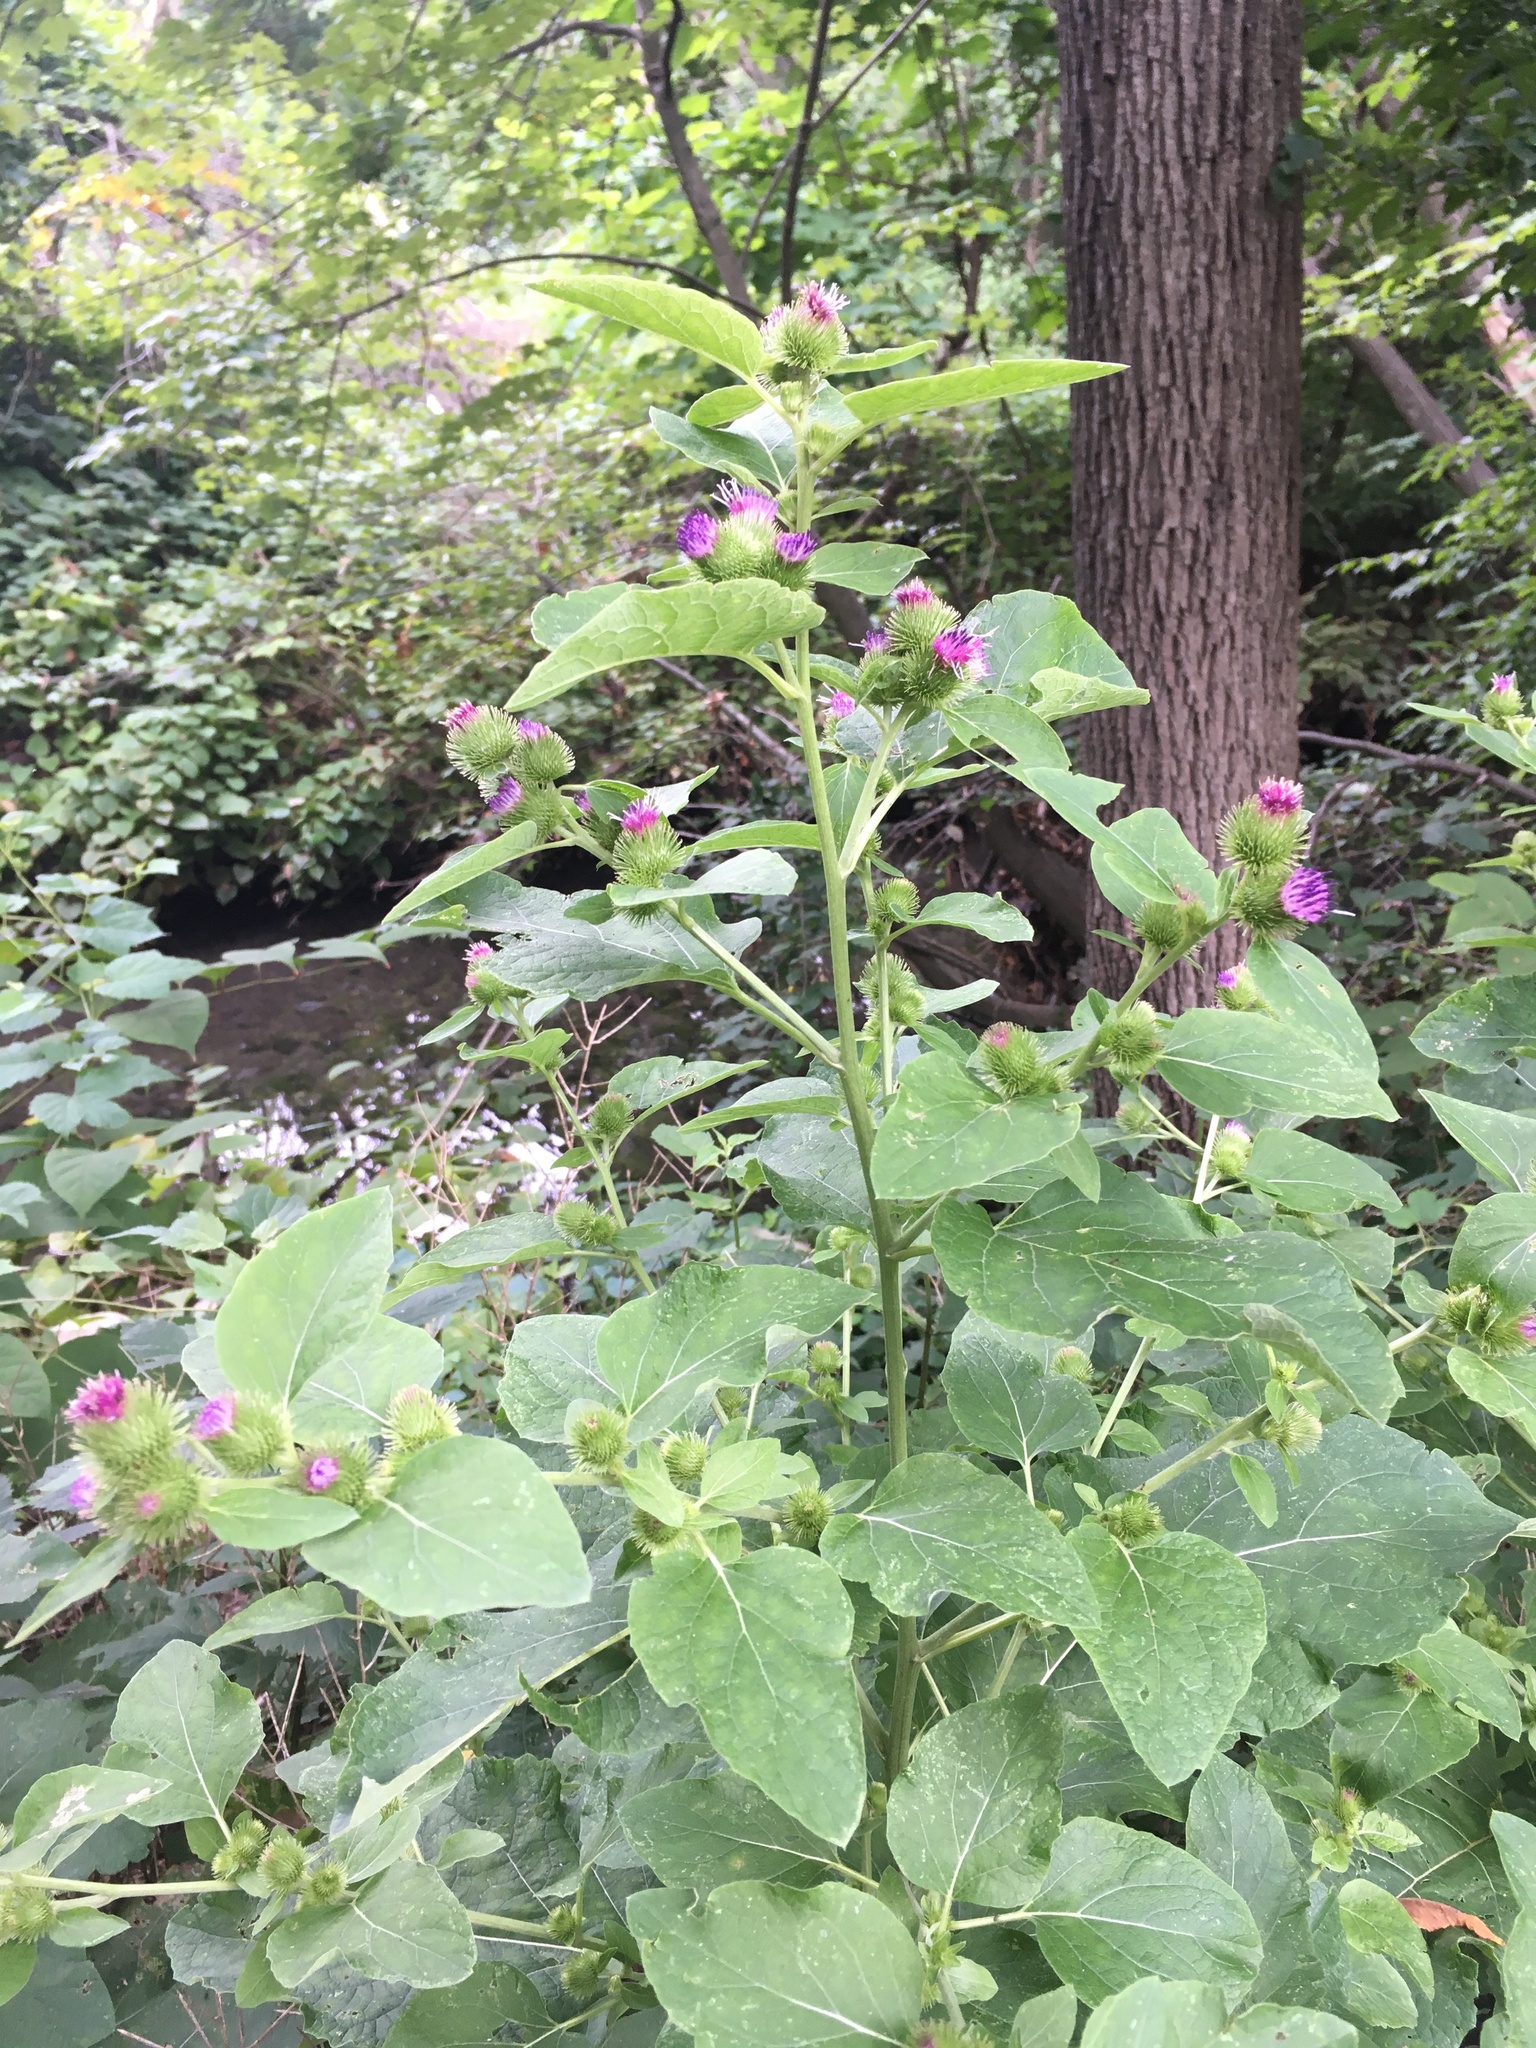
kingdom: Plantae
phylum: Tracheophyta
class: Magnoliopsida
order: Asterales
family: Asteraceae
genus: Arctium
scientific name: Arctium minus
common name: Lesser burdock
